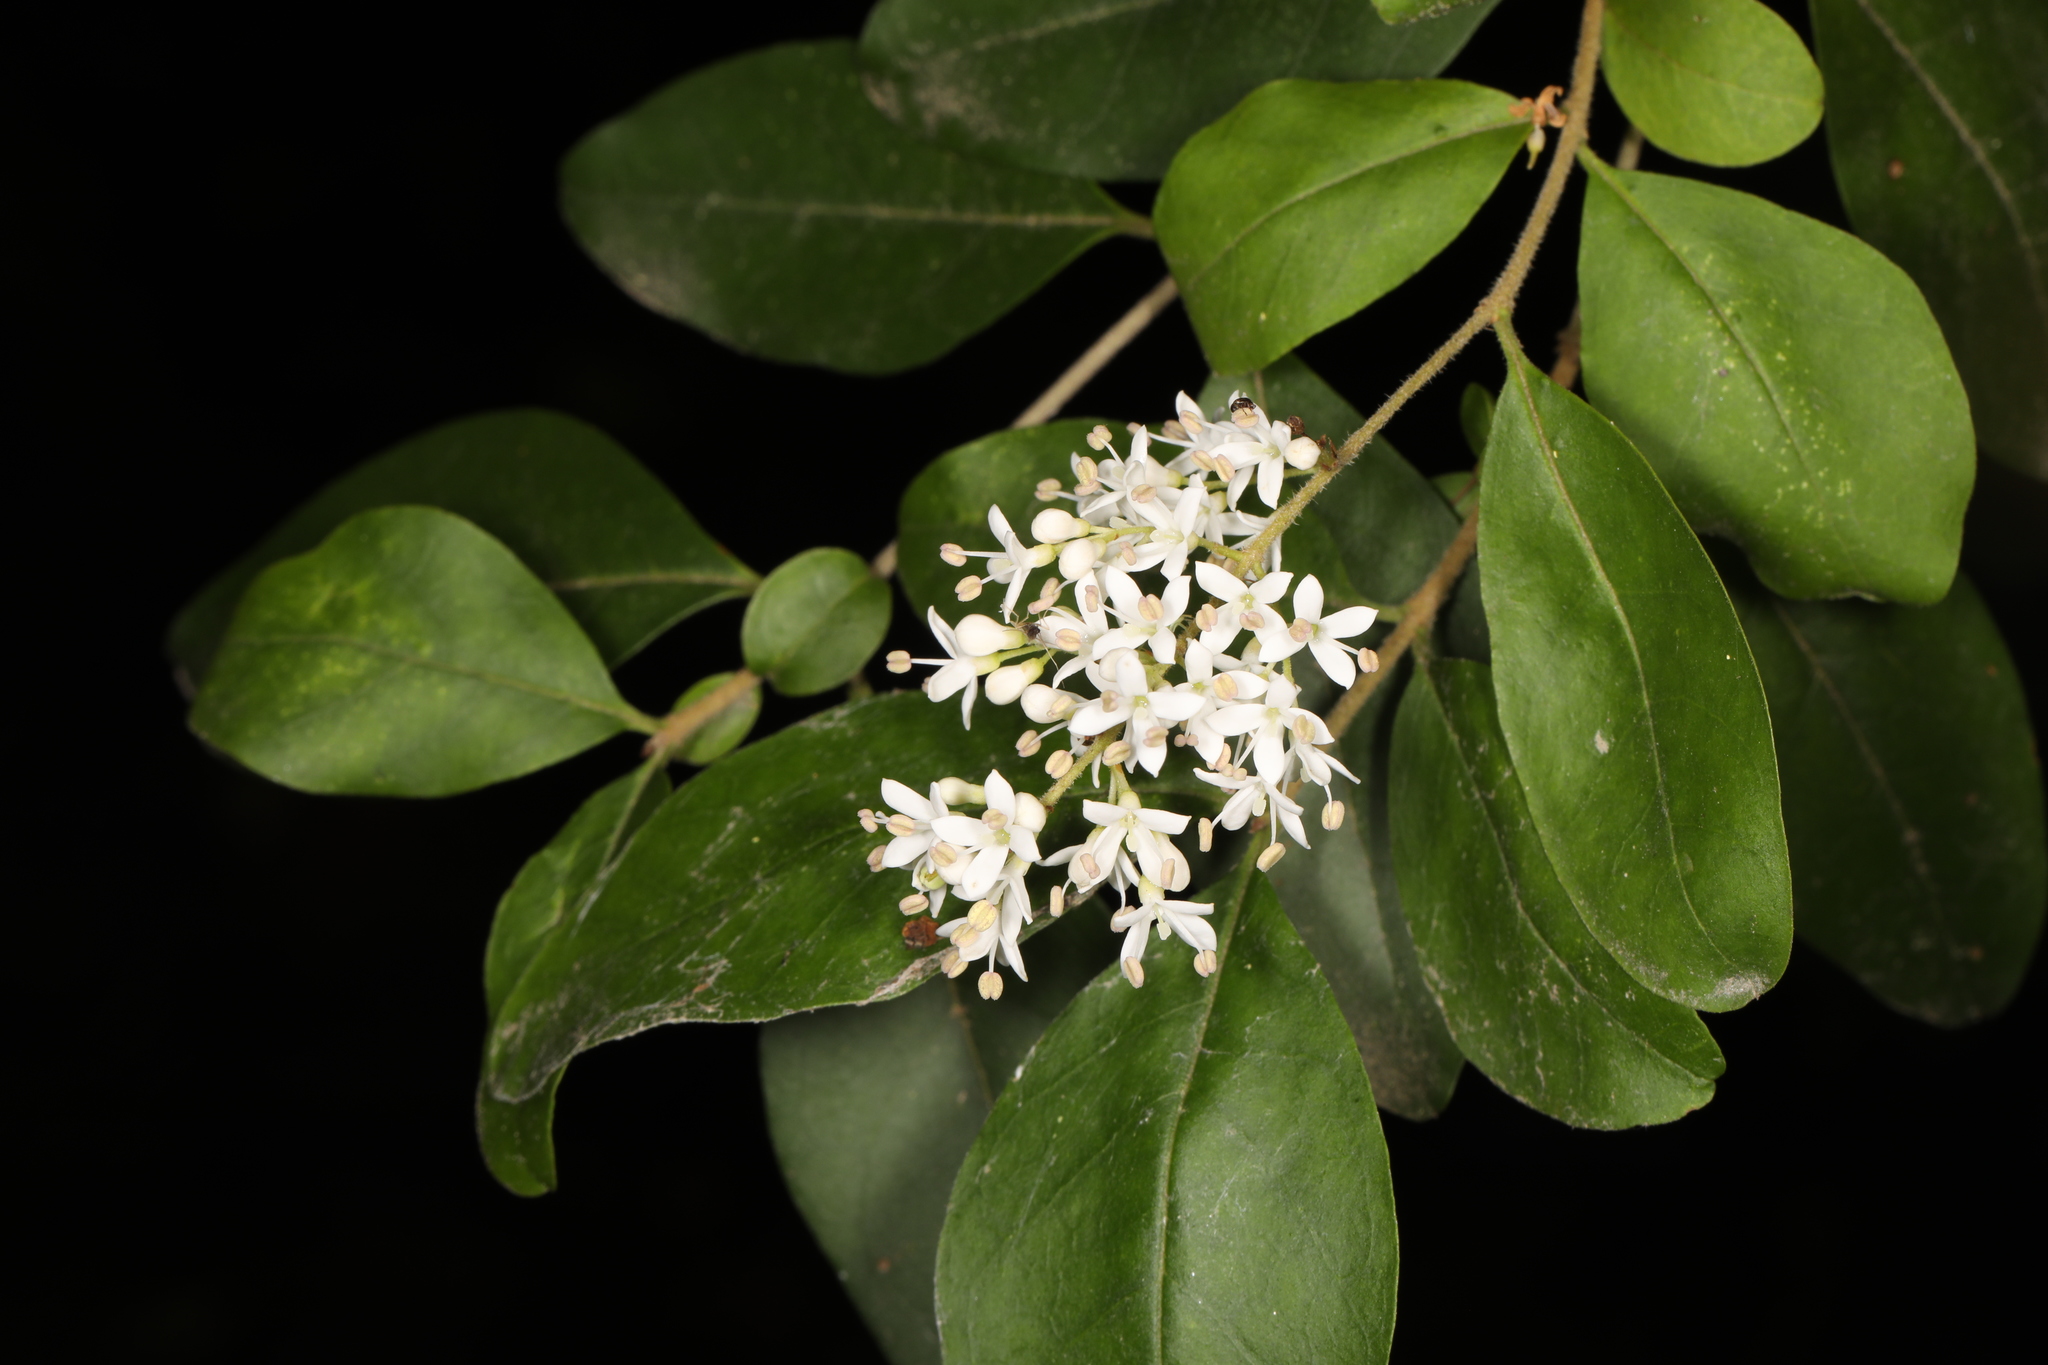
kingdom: Plantae
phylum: Tracheophyta
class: Magnoliopsida
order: Lamiales
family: Oleaceae
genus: Ligustrum
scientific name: Ligustrum sinense
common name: Chinese privet
